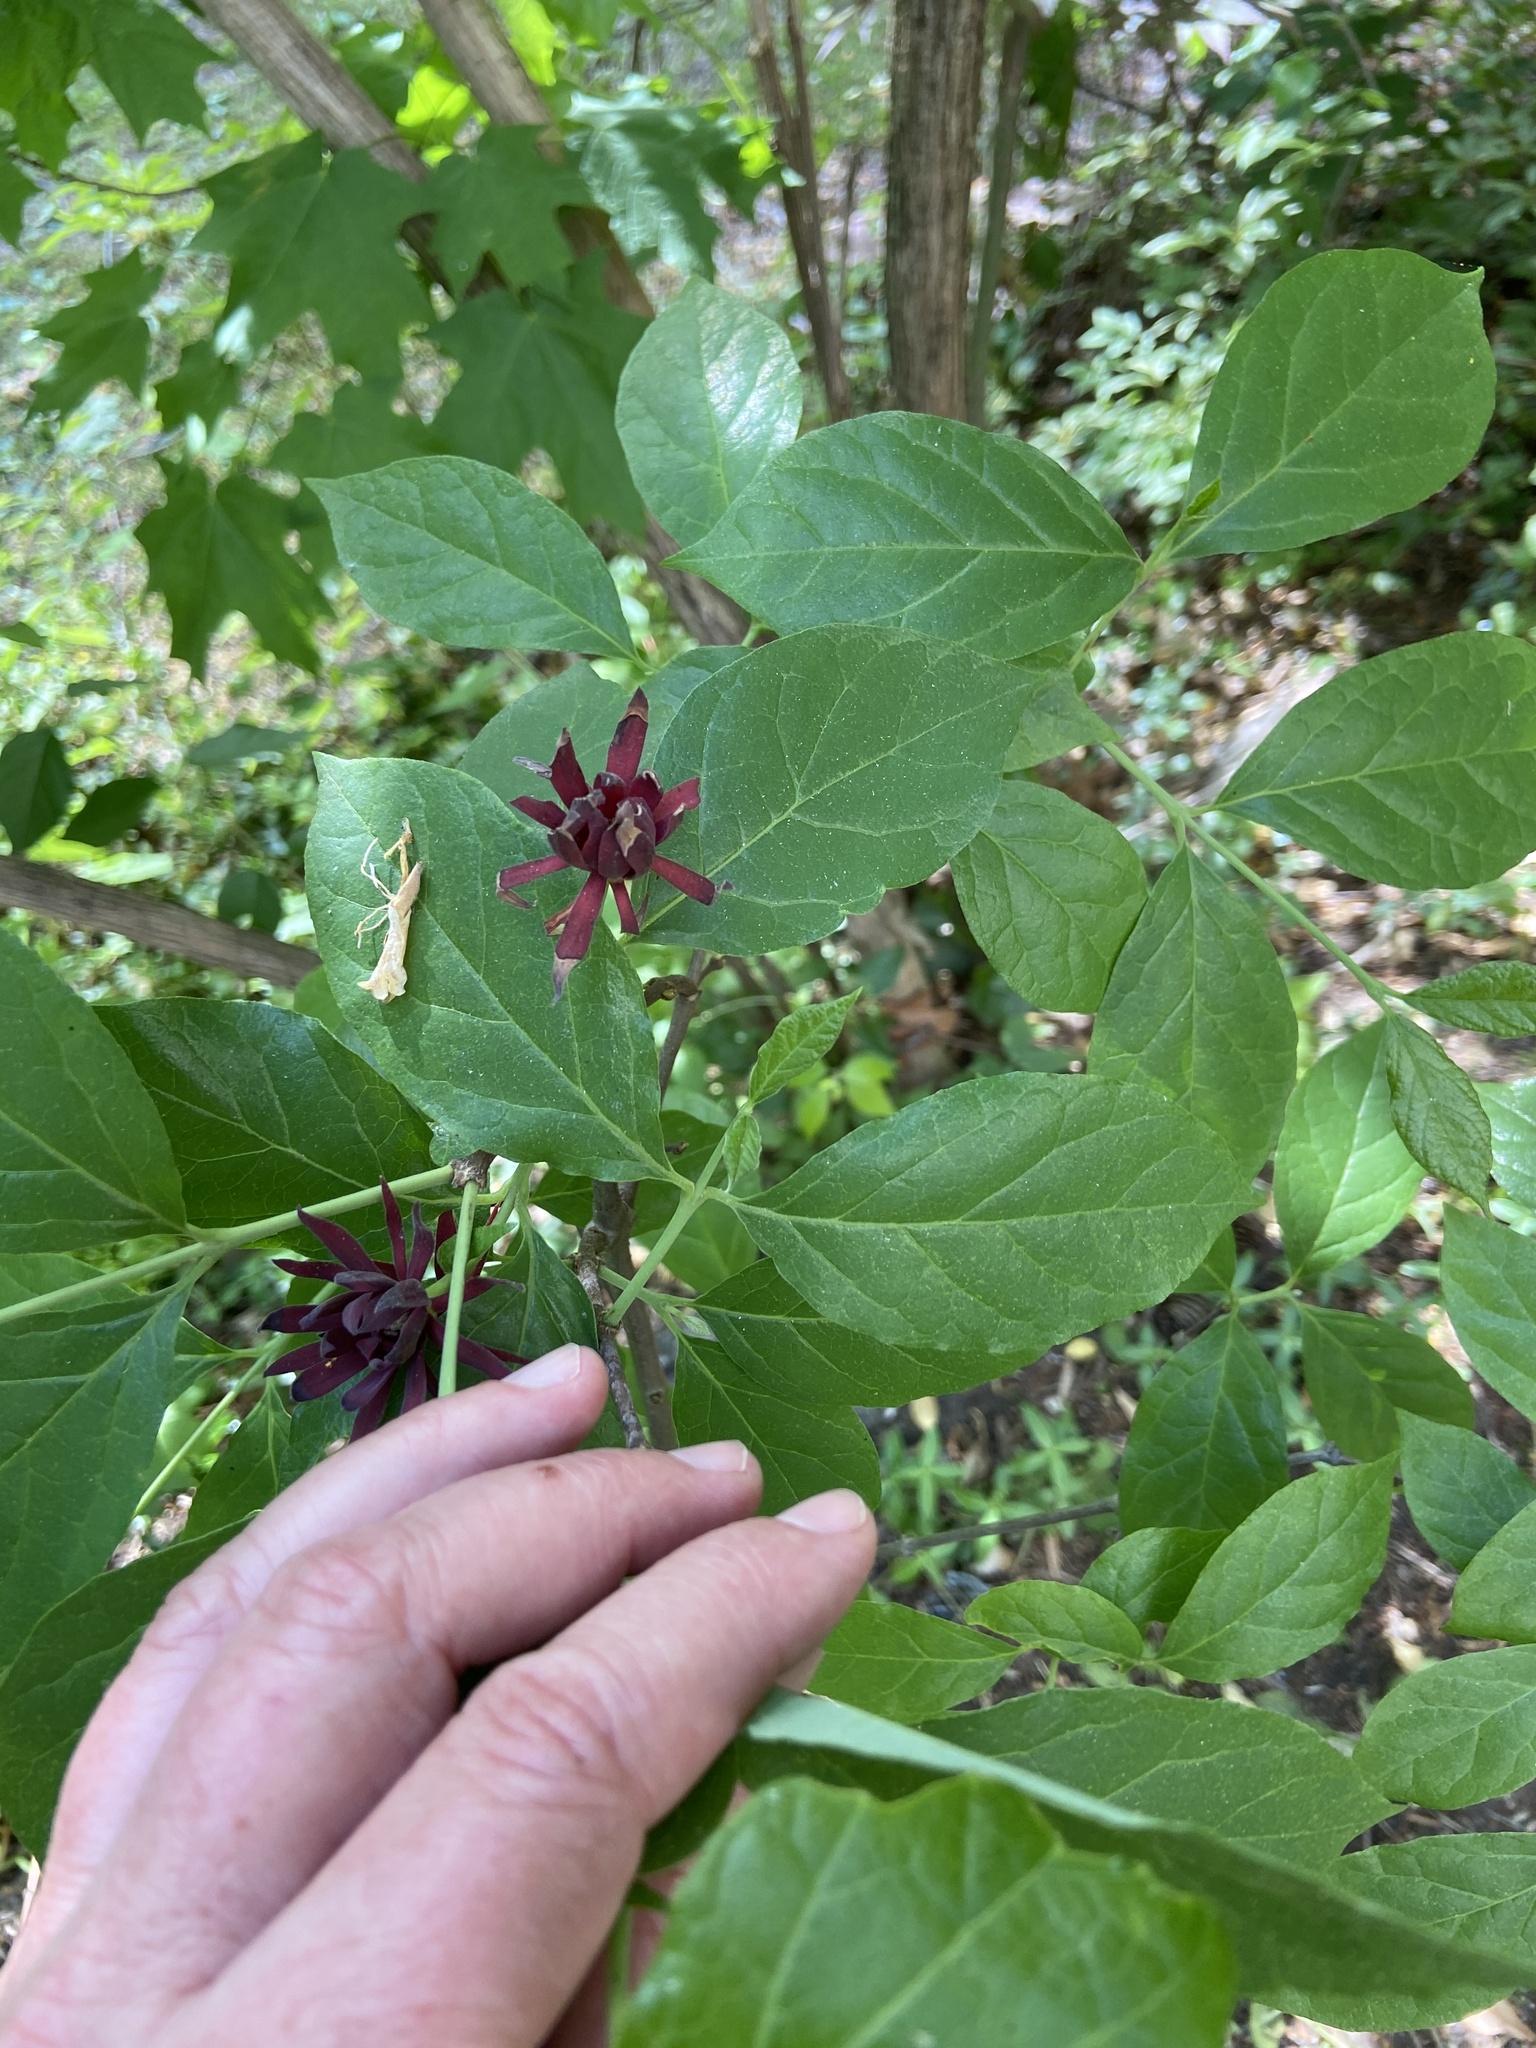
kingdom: Plantae
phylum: Tracheophyta
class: Magnoliopsida
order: Laurales
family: Calycanthaceae
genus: Calycanthus
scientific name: Calycanthus floridus
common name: Carolina-allspice
